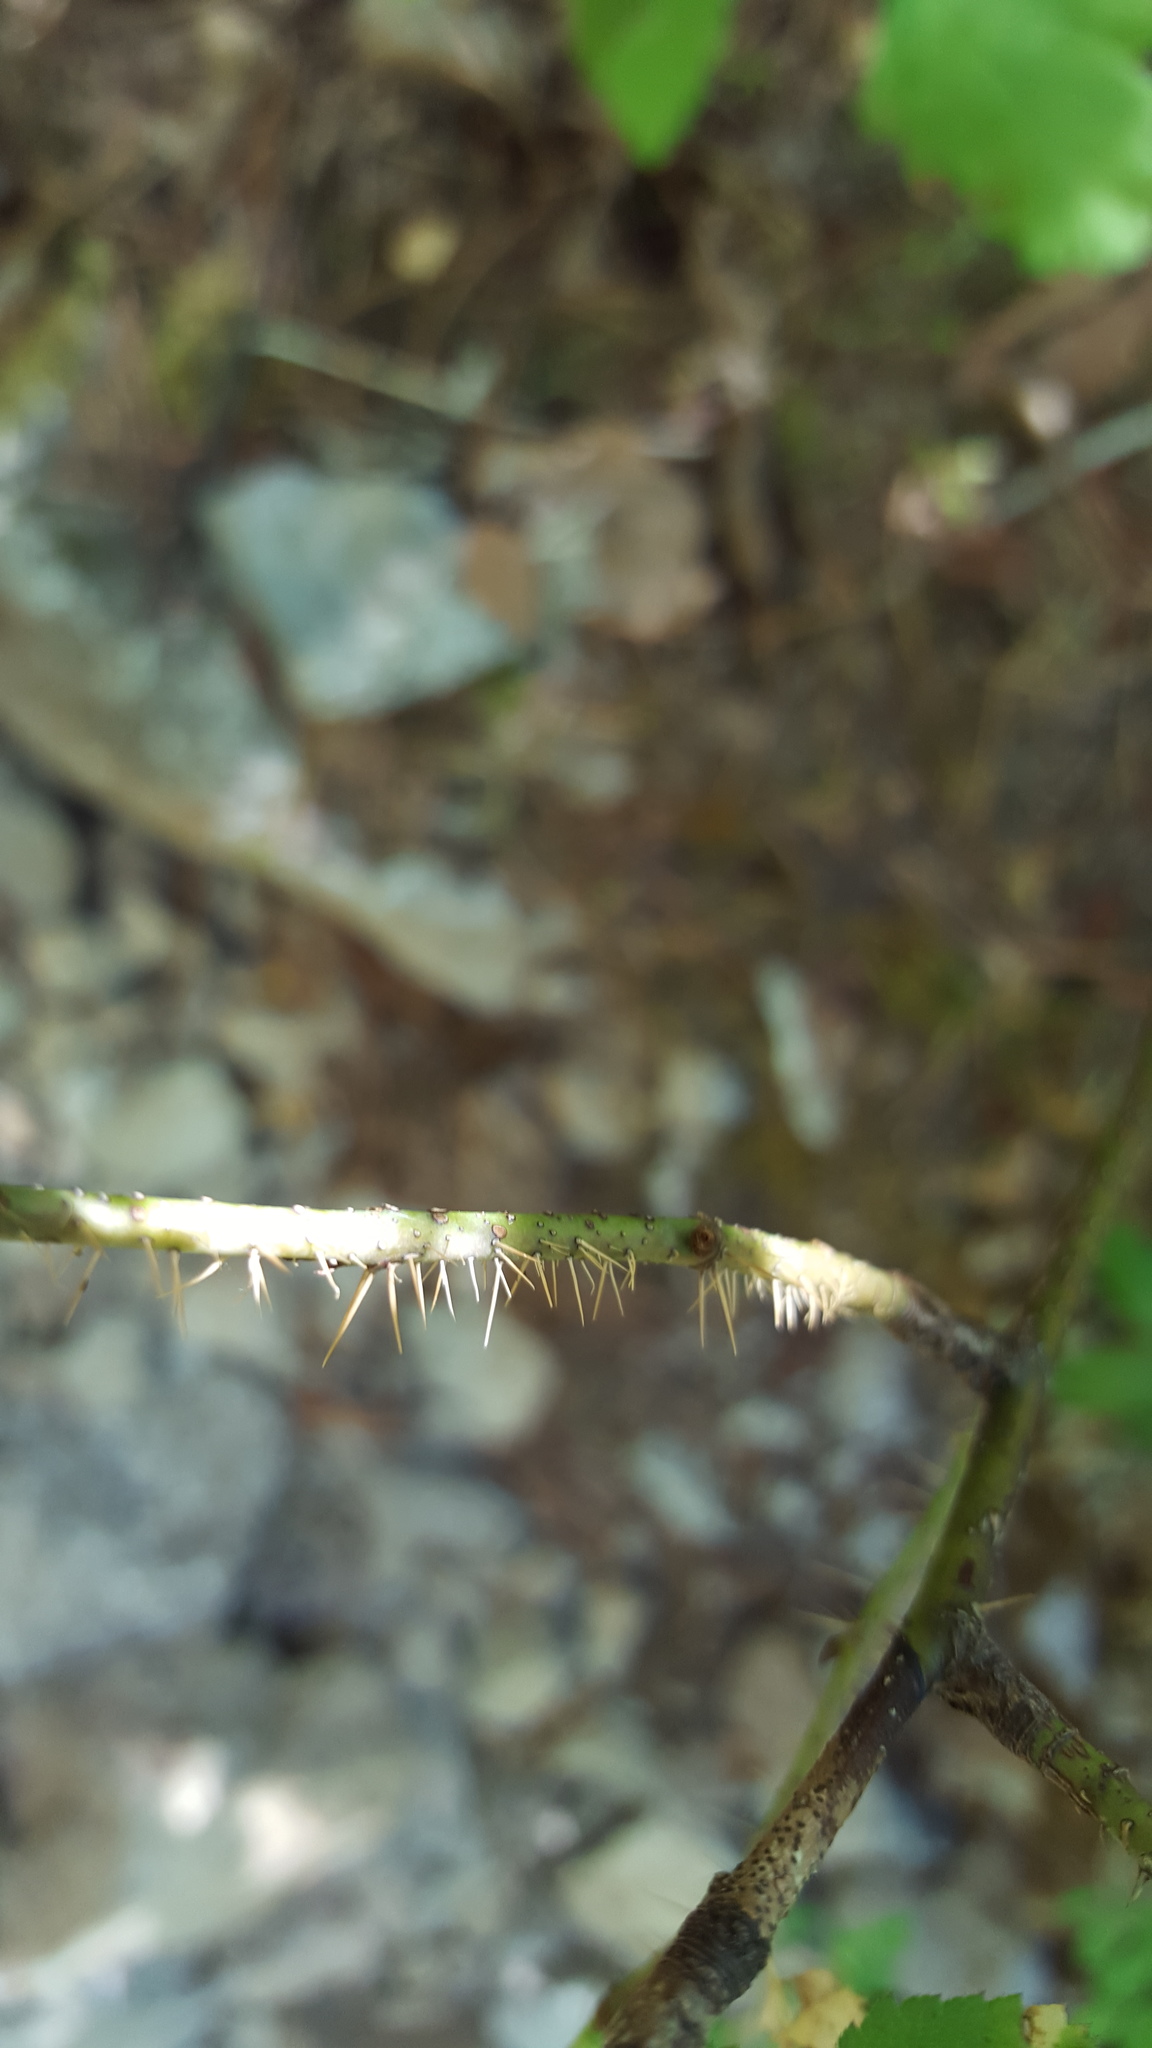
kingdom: Plantae
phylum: Tracheophyta
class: Magnoliopsida
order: Rosales
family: Rosaceae
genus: Rosa
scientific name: Rosa gymnocarpa
